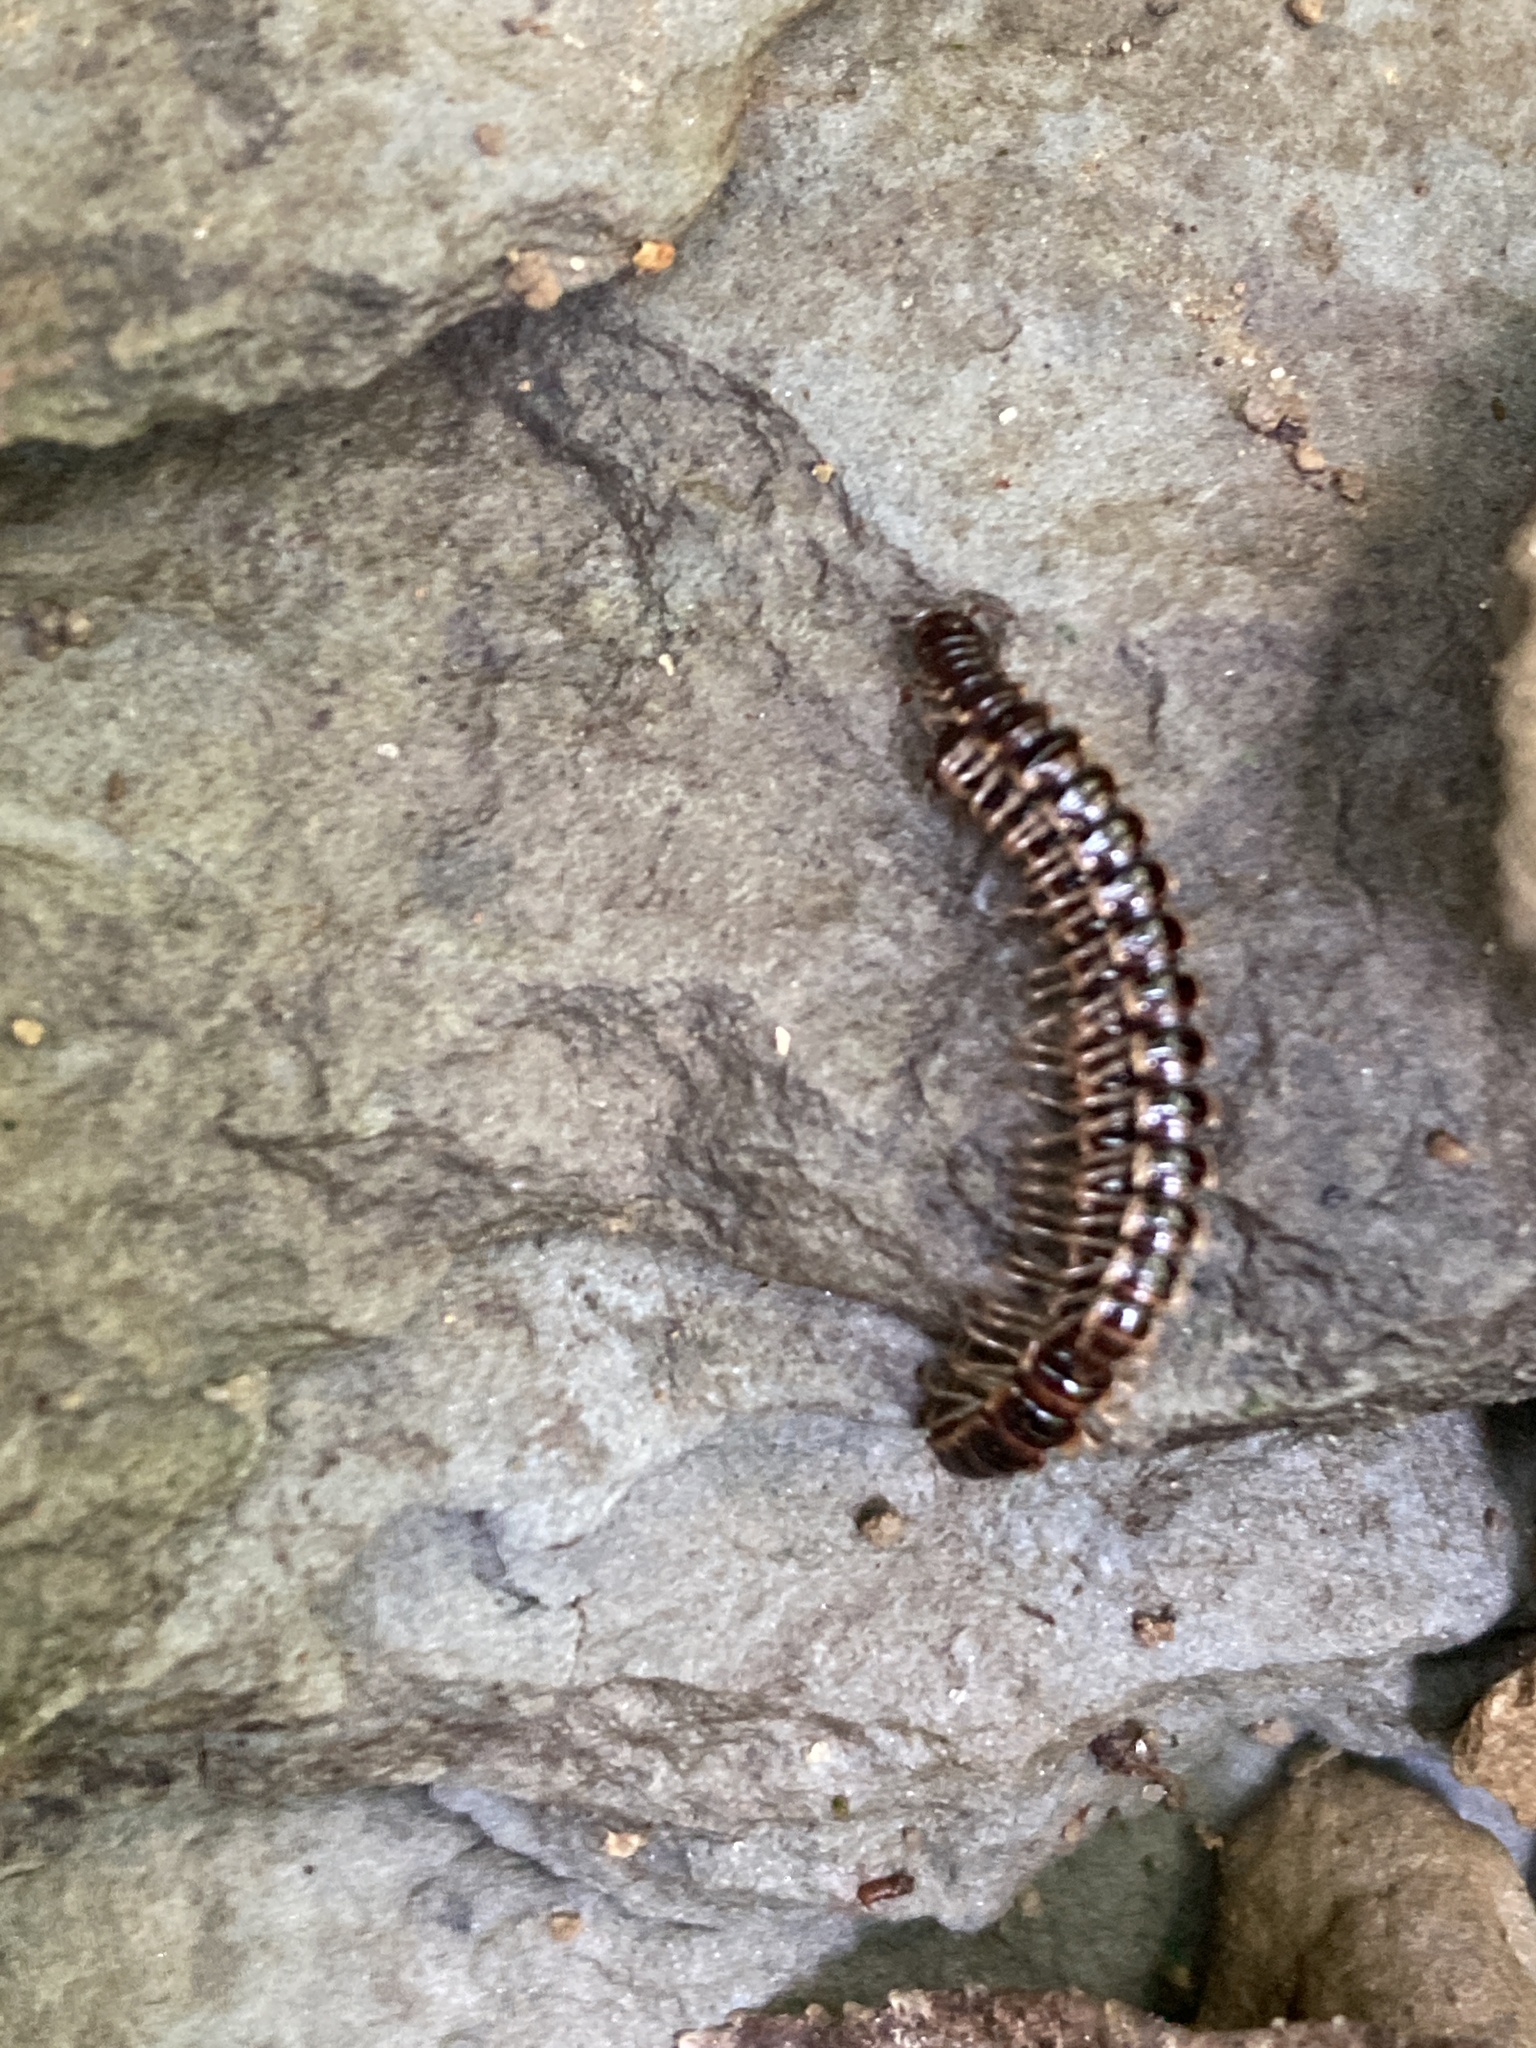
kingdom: Animalia
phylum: Arthropoda
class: Diplopoda
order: Polydesmida
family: Paradoxosomatidae
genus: Oxidus
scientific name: Oxidus gracilis
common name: Greenhouse millipede
